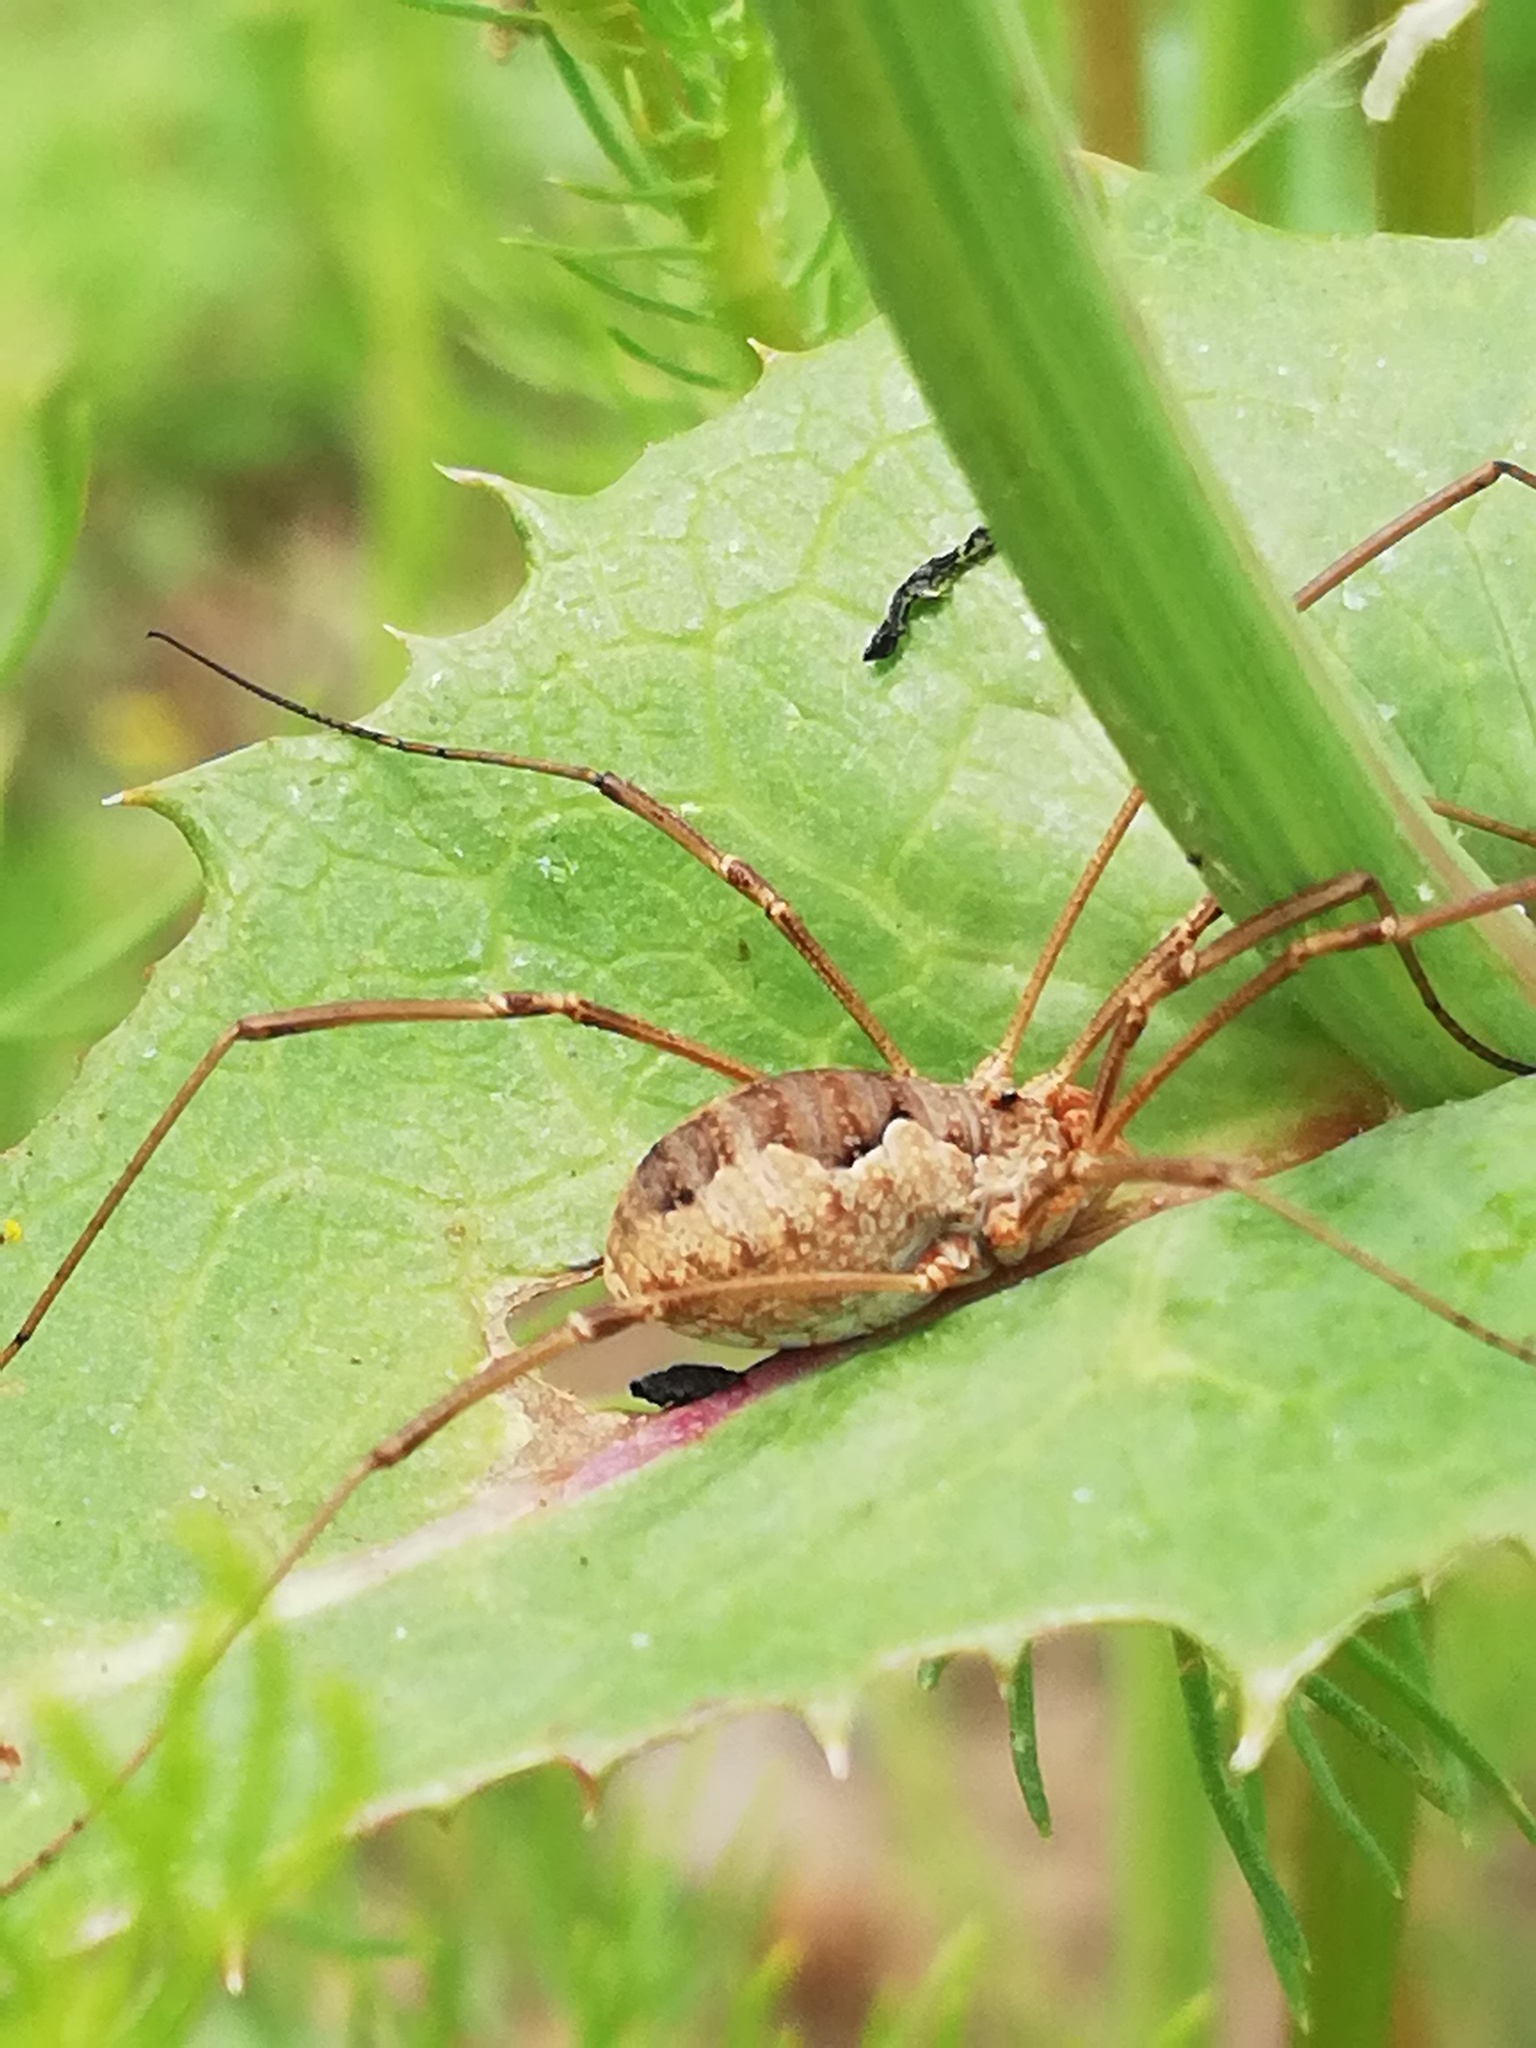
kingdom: Animalia
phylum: Arthropoda
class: Arachnida
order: Opiliones
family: Phalangiidae
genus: Phalangium
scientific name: Phalangium opilio
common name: Daddy longleg
